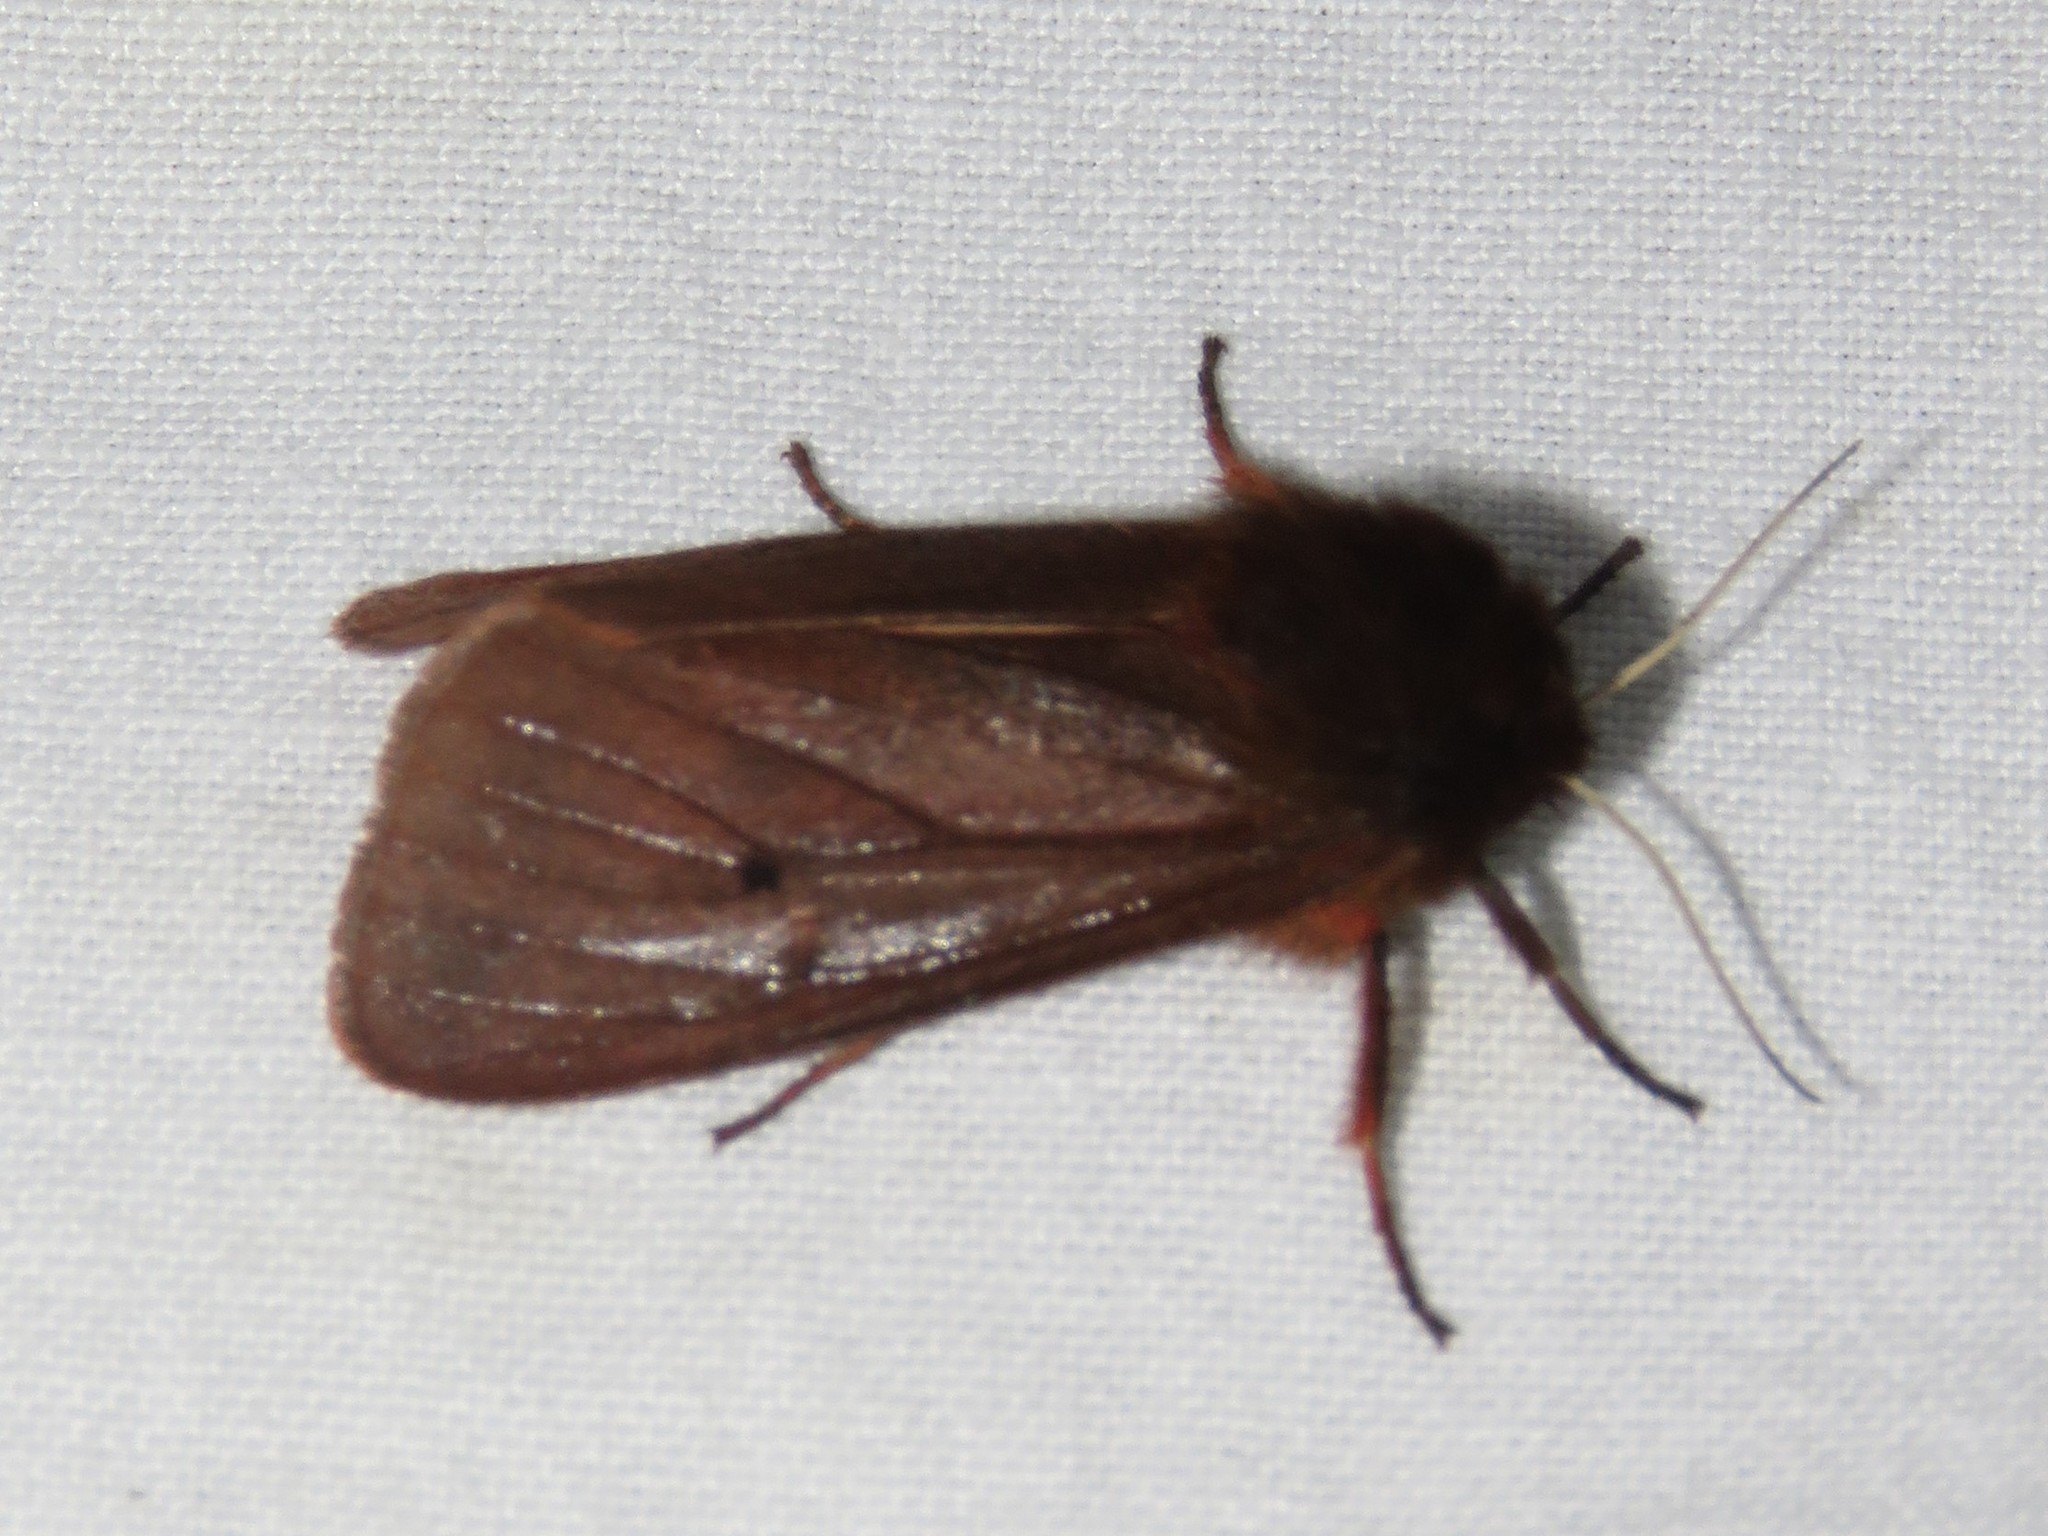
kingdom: Animalia
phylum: Arthropoda
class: Insecta
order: Lepidoptera
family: Erebidae
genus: Phragmatobia
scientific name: Phragmatobia fuliginosa
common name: Ruby tiger
